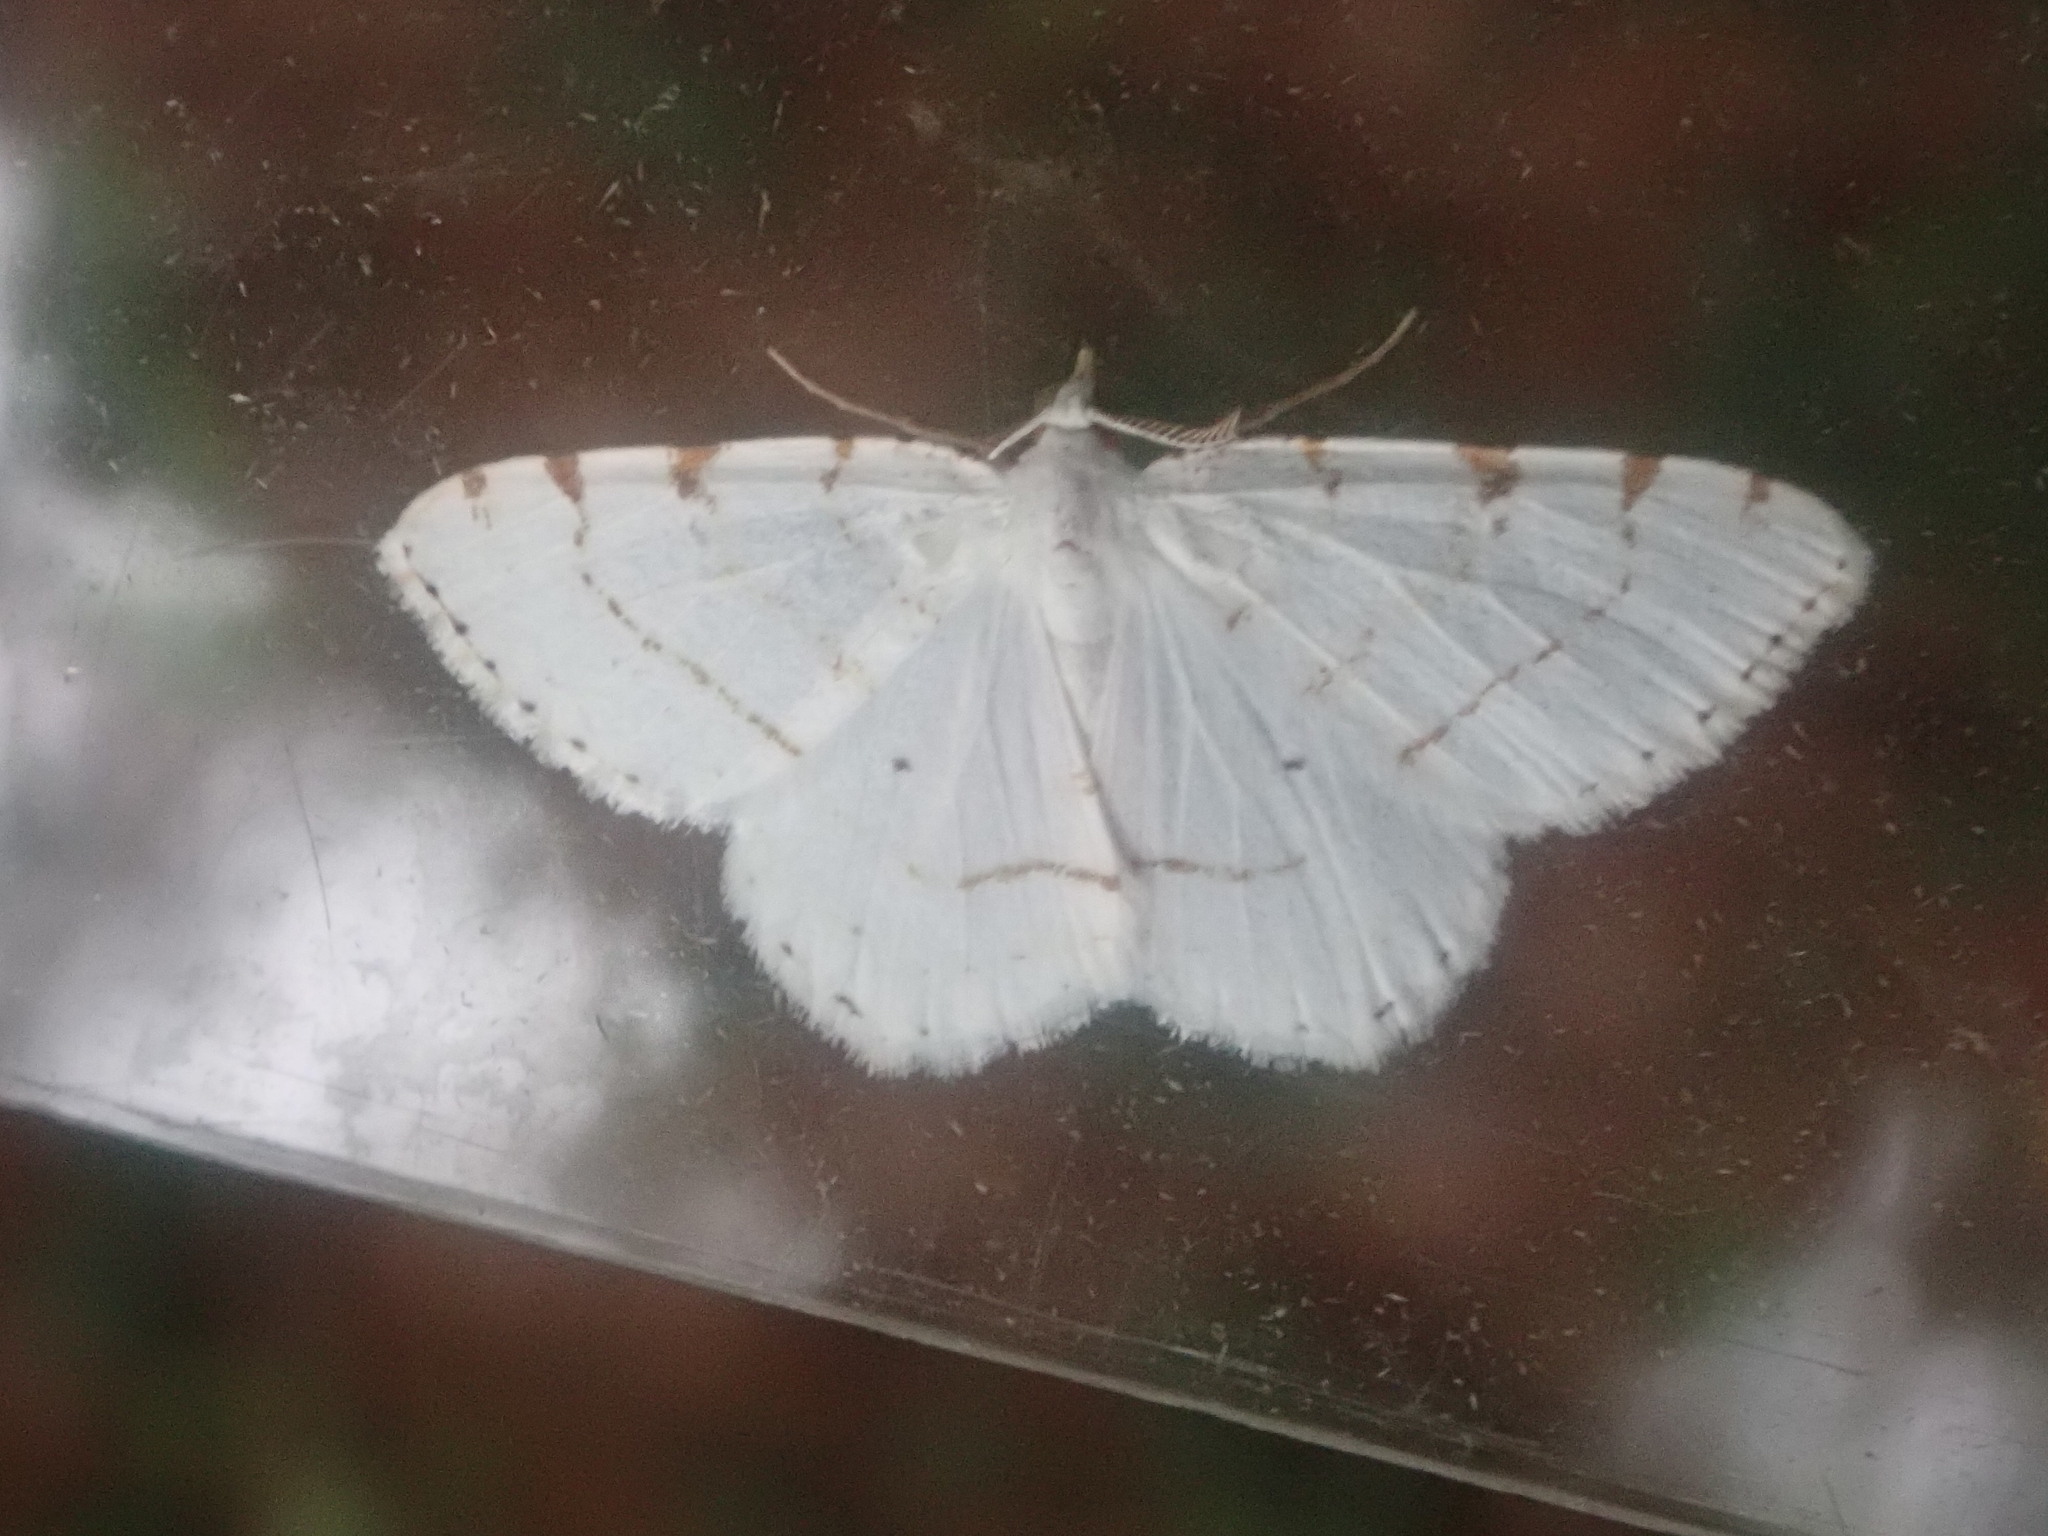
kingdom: Animalia
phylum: Arthropoda
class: Insecta
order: Lepidoptera
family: Geometridae
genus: Macaria
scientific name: Macaria pustularia
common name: Lesser maple spanworm moth
